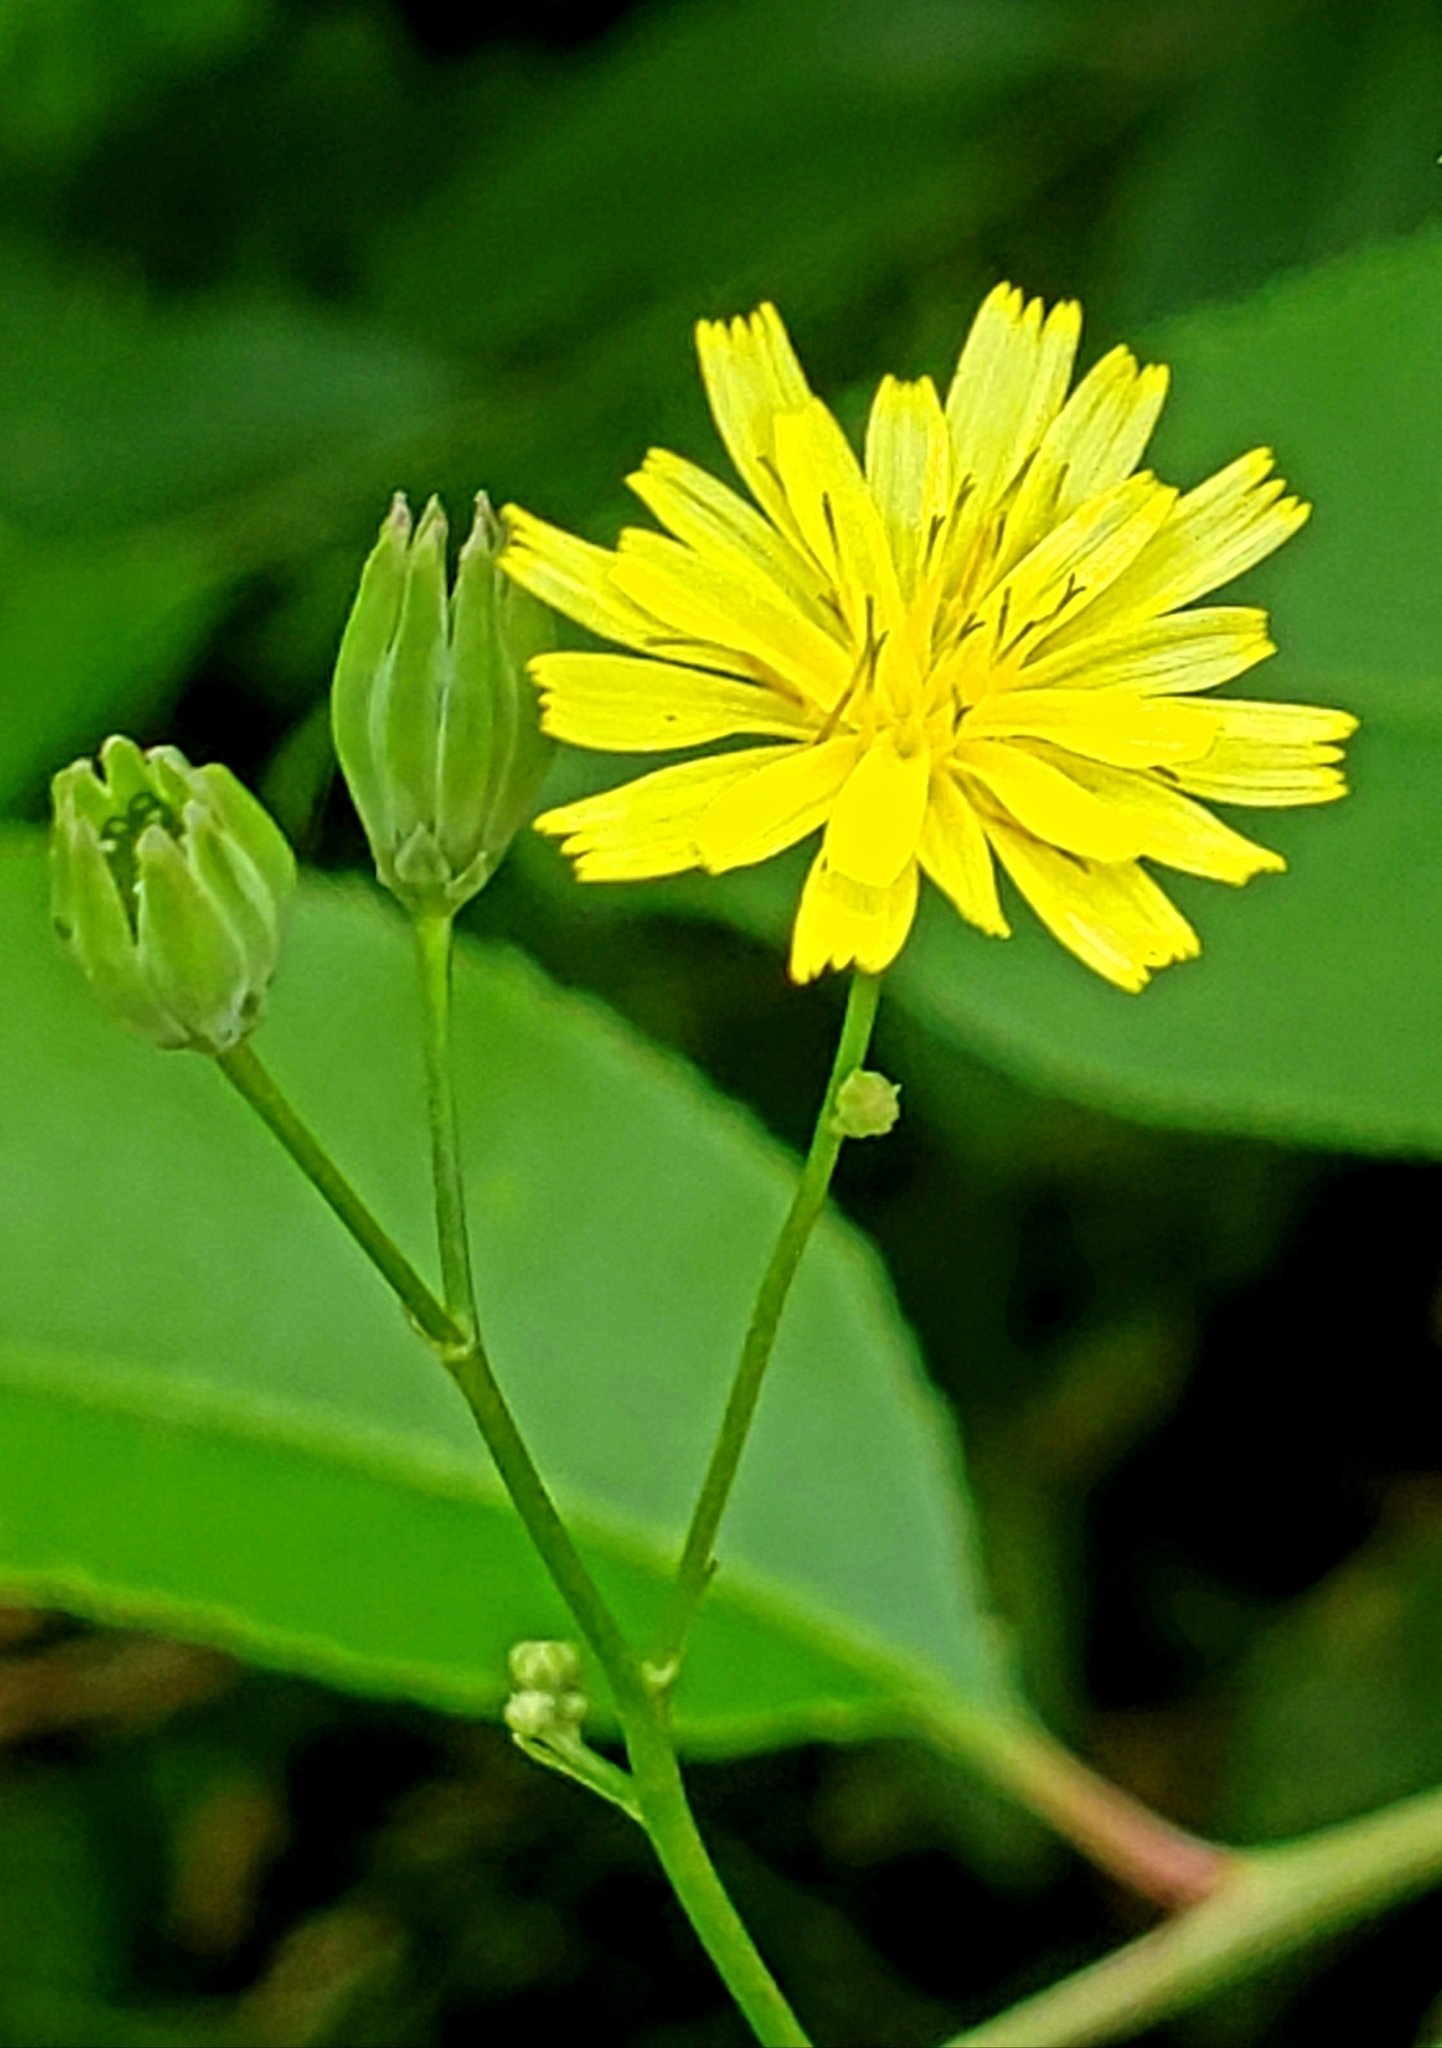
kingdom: Plantae
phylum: Tracheophyta
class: Magnoliopsida
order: Asterales
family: Asteraceae
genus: Lapsana
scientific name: Lapsana communis
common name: Nipplewort
